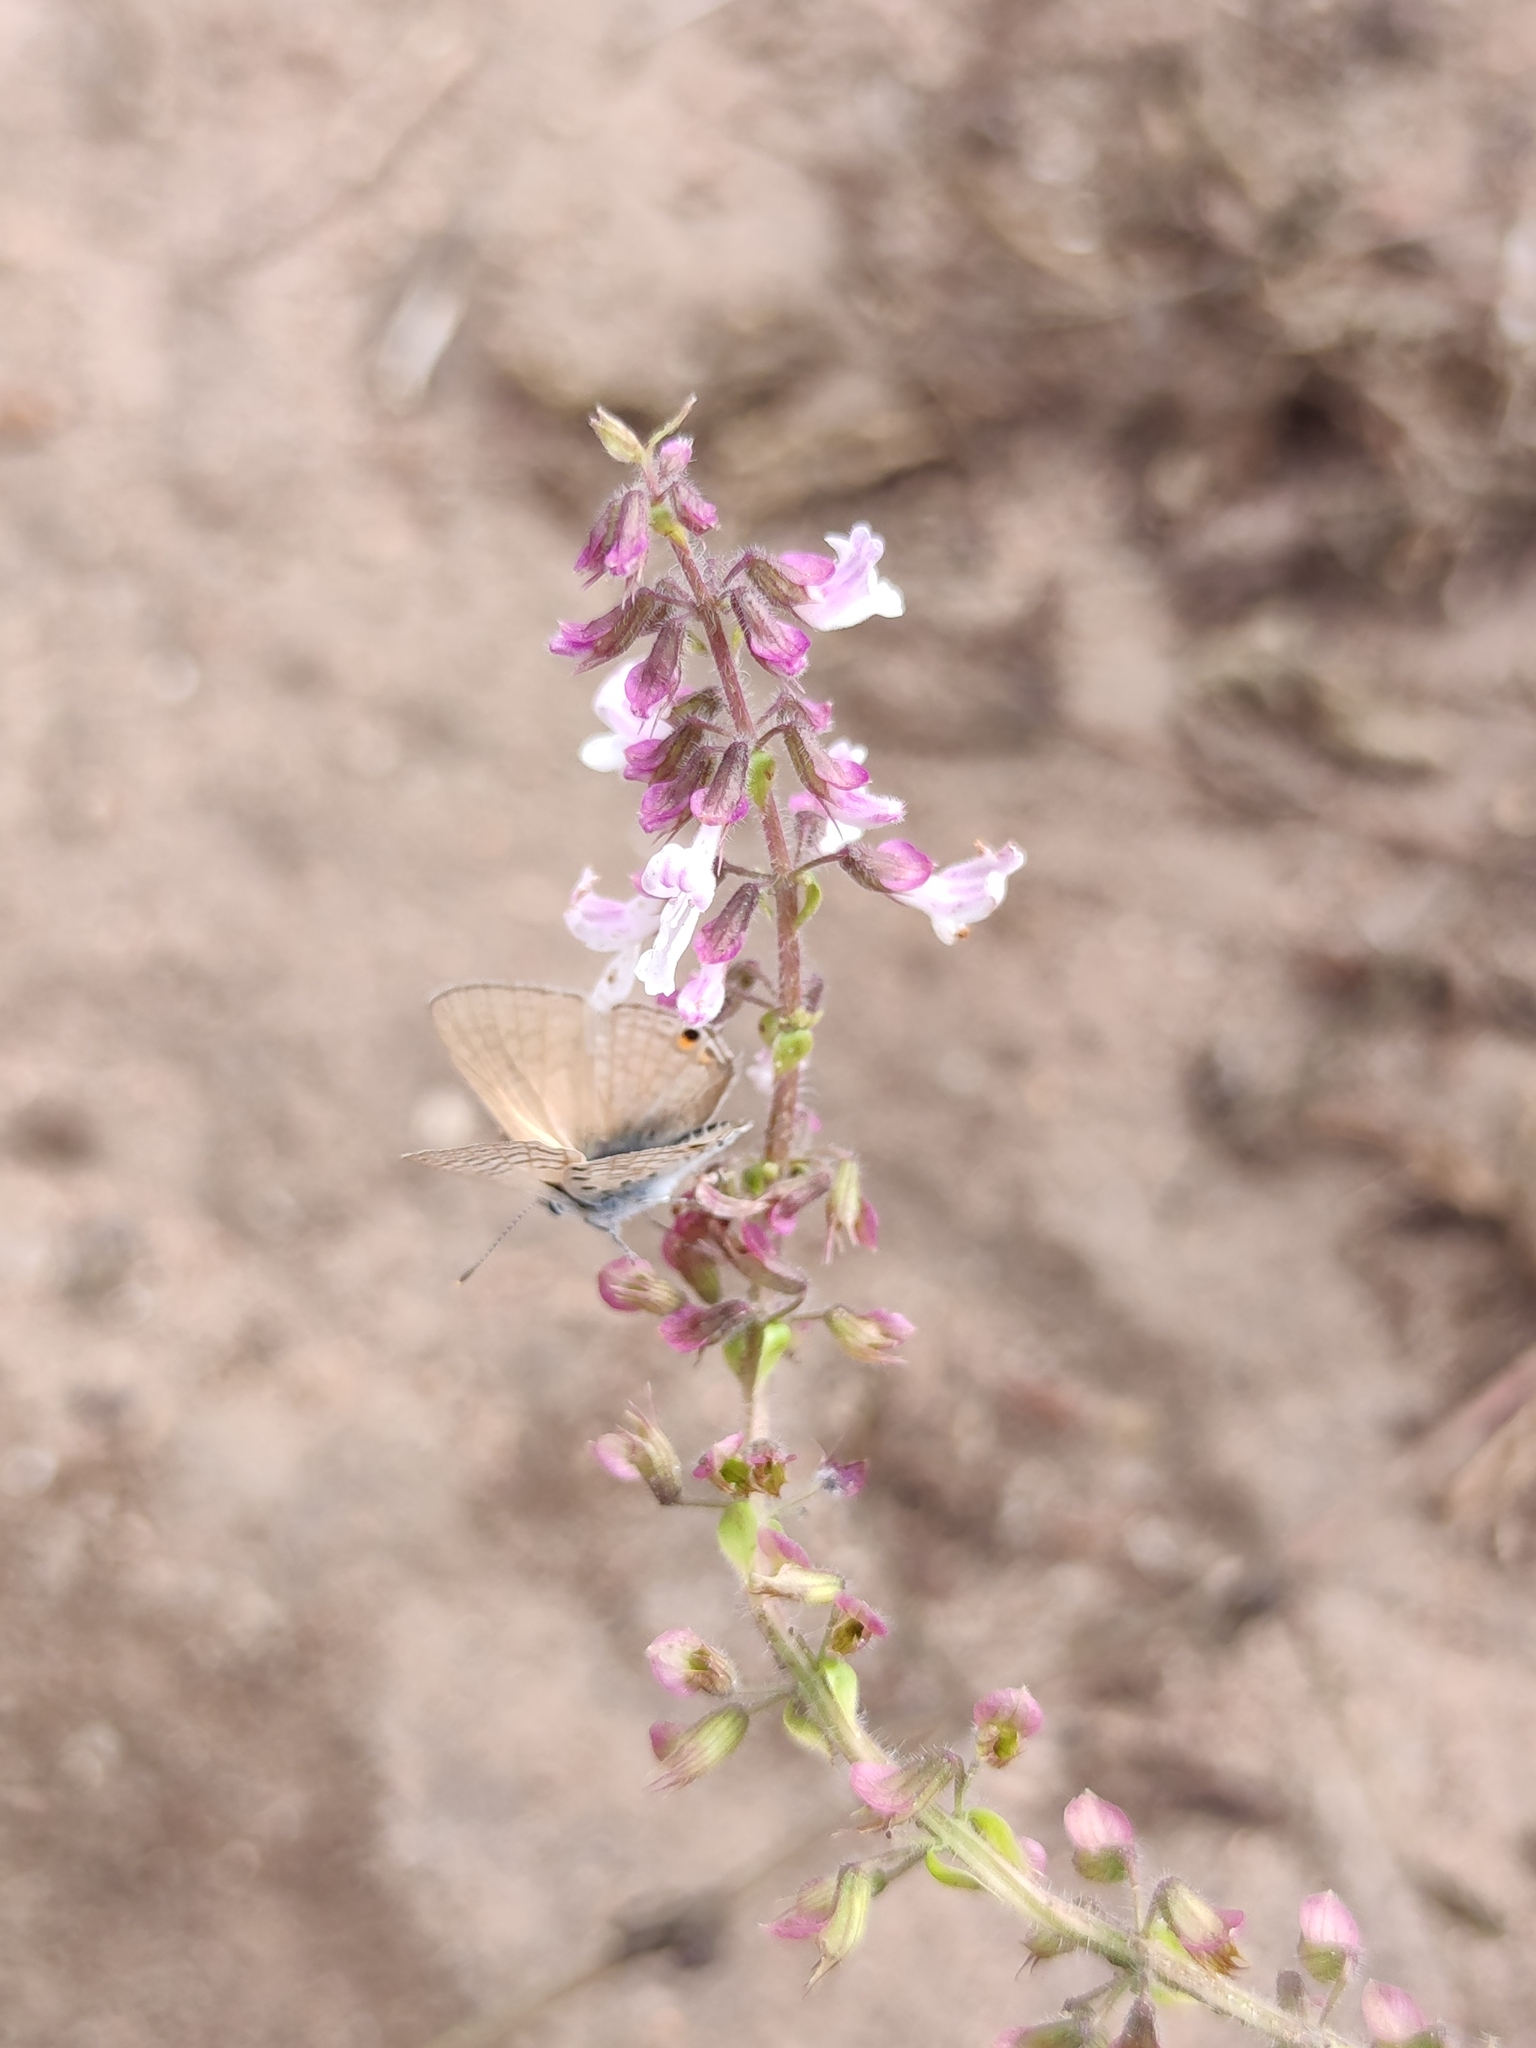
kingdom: Animalia
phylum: Arthropoda
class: Insecta
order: Lepidoptera
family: Lycaenidae
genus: Anthene
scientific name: Anthene amarah
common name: Black-striped hairtail
